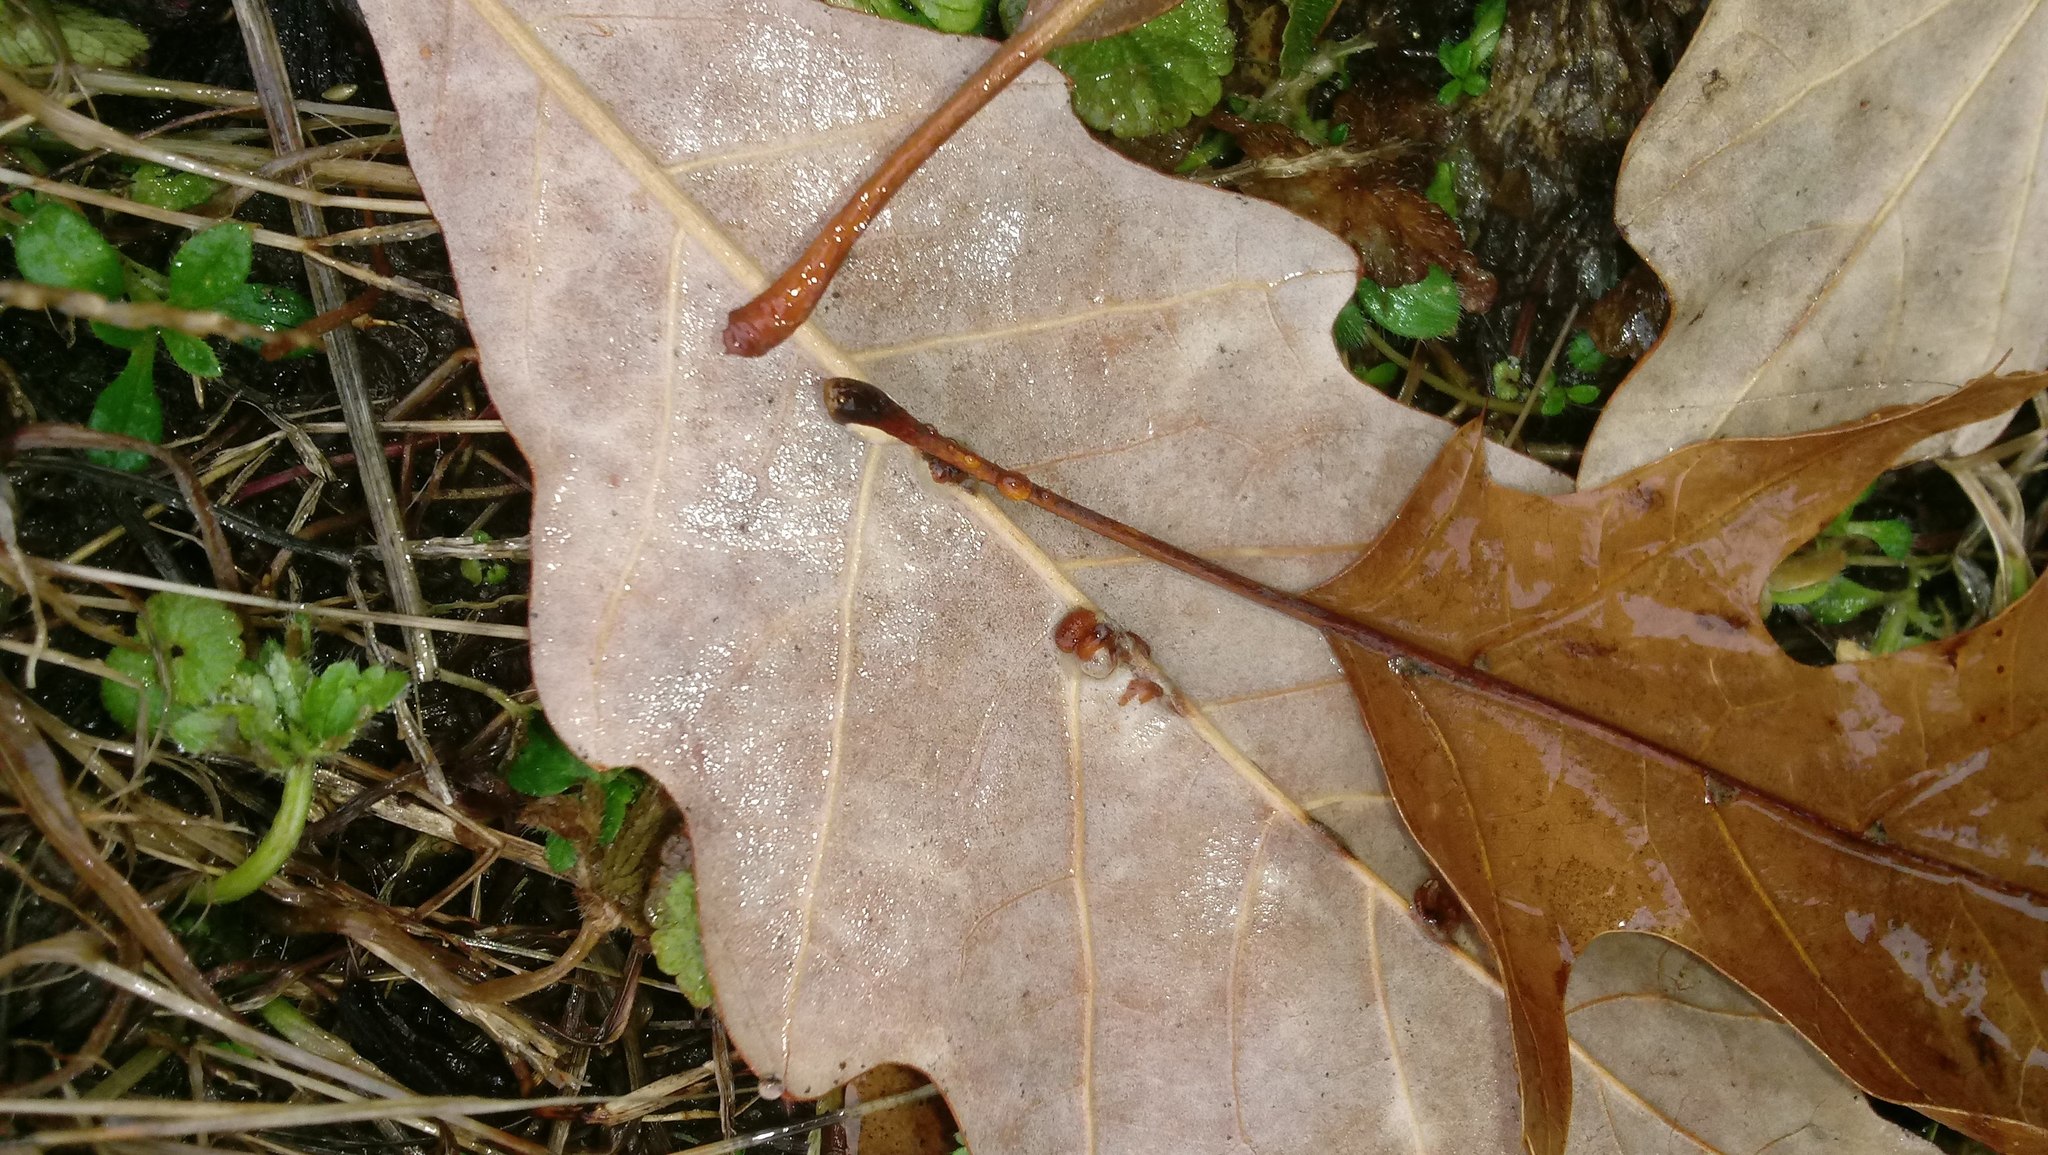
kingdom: Animalia
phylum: Arthropoda
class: Insecta
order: Hymenoptera
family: Cynipidae
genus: Andricus
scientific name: Andricus Druon ignotum
